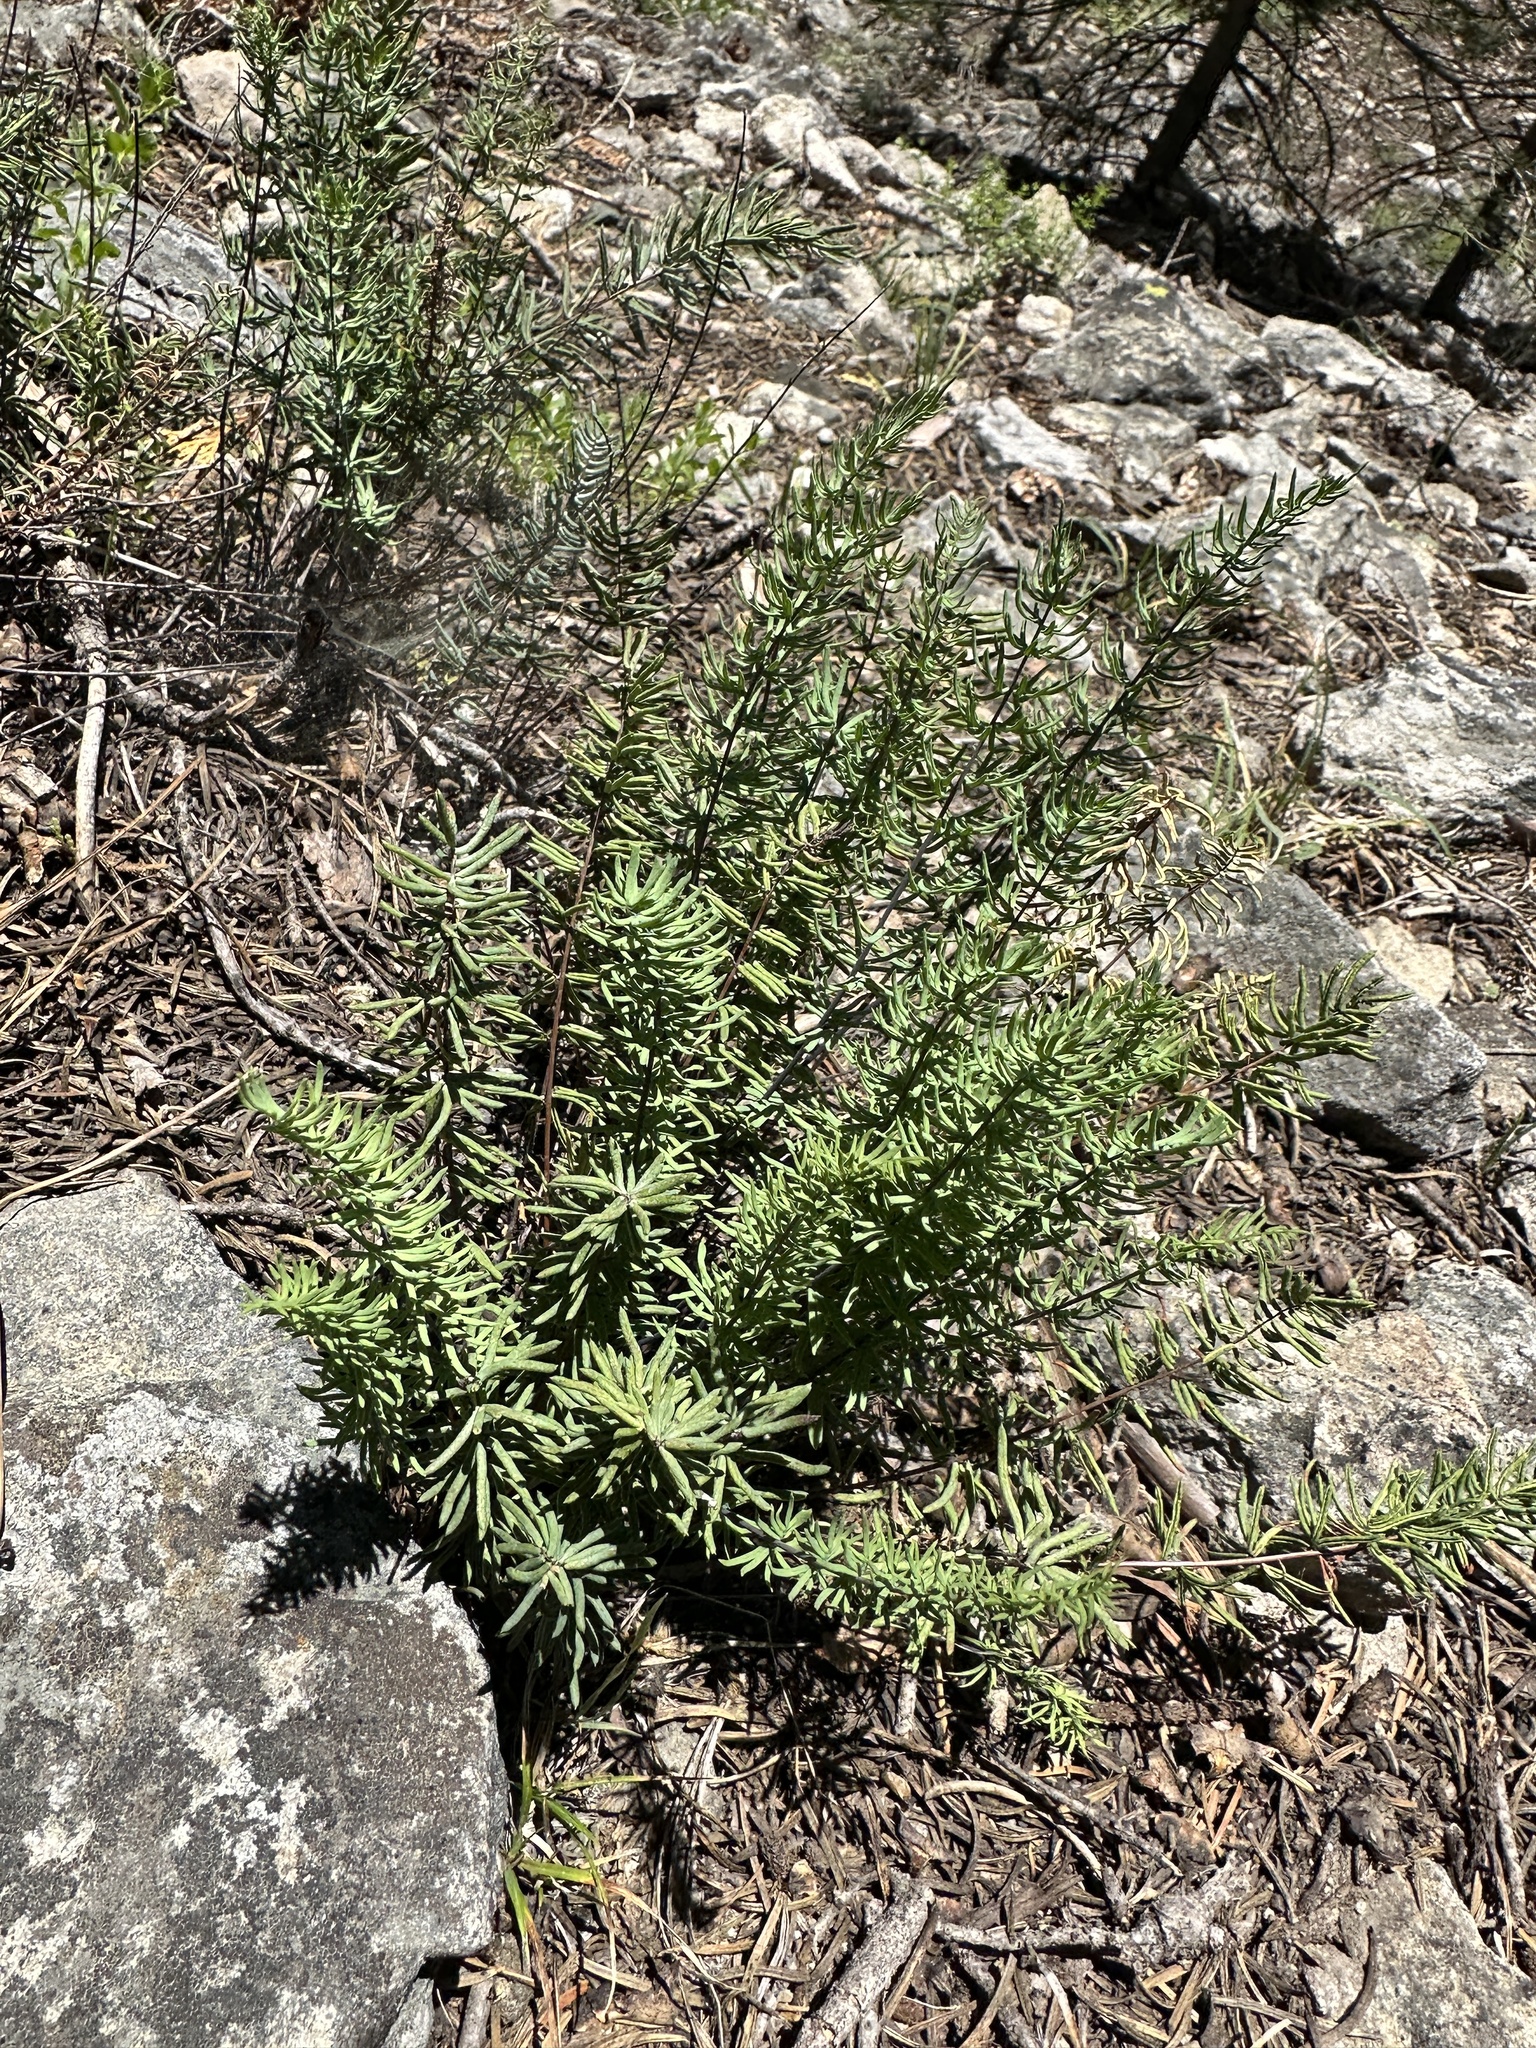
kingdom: Plantae
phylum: Tracheophyta
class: Polypodiopsida
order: Polypodiales
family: Pteridaceae
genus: Pellaea
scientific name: Pellaea brachyptera
